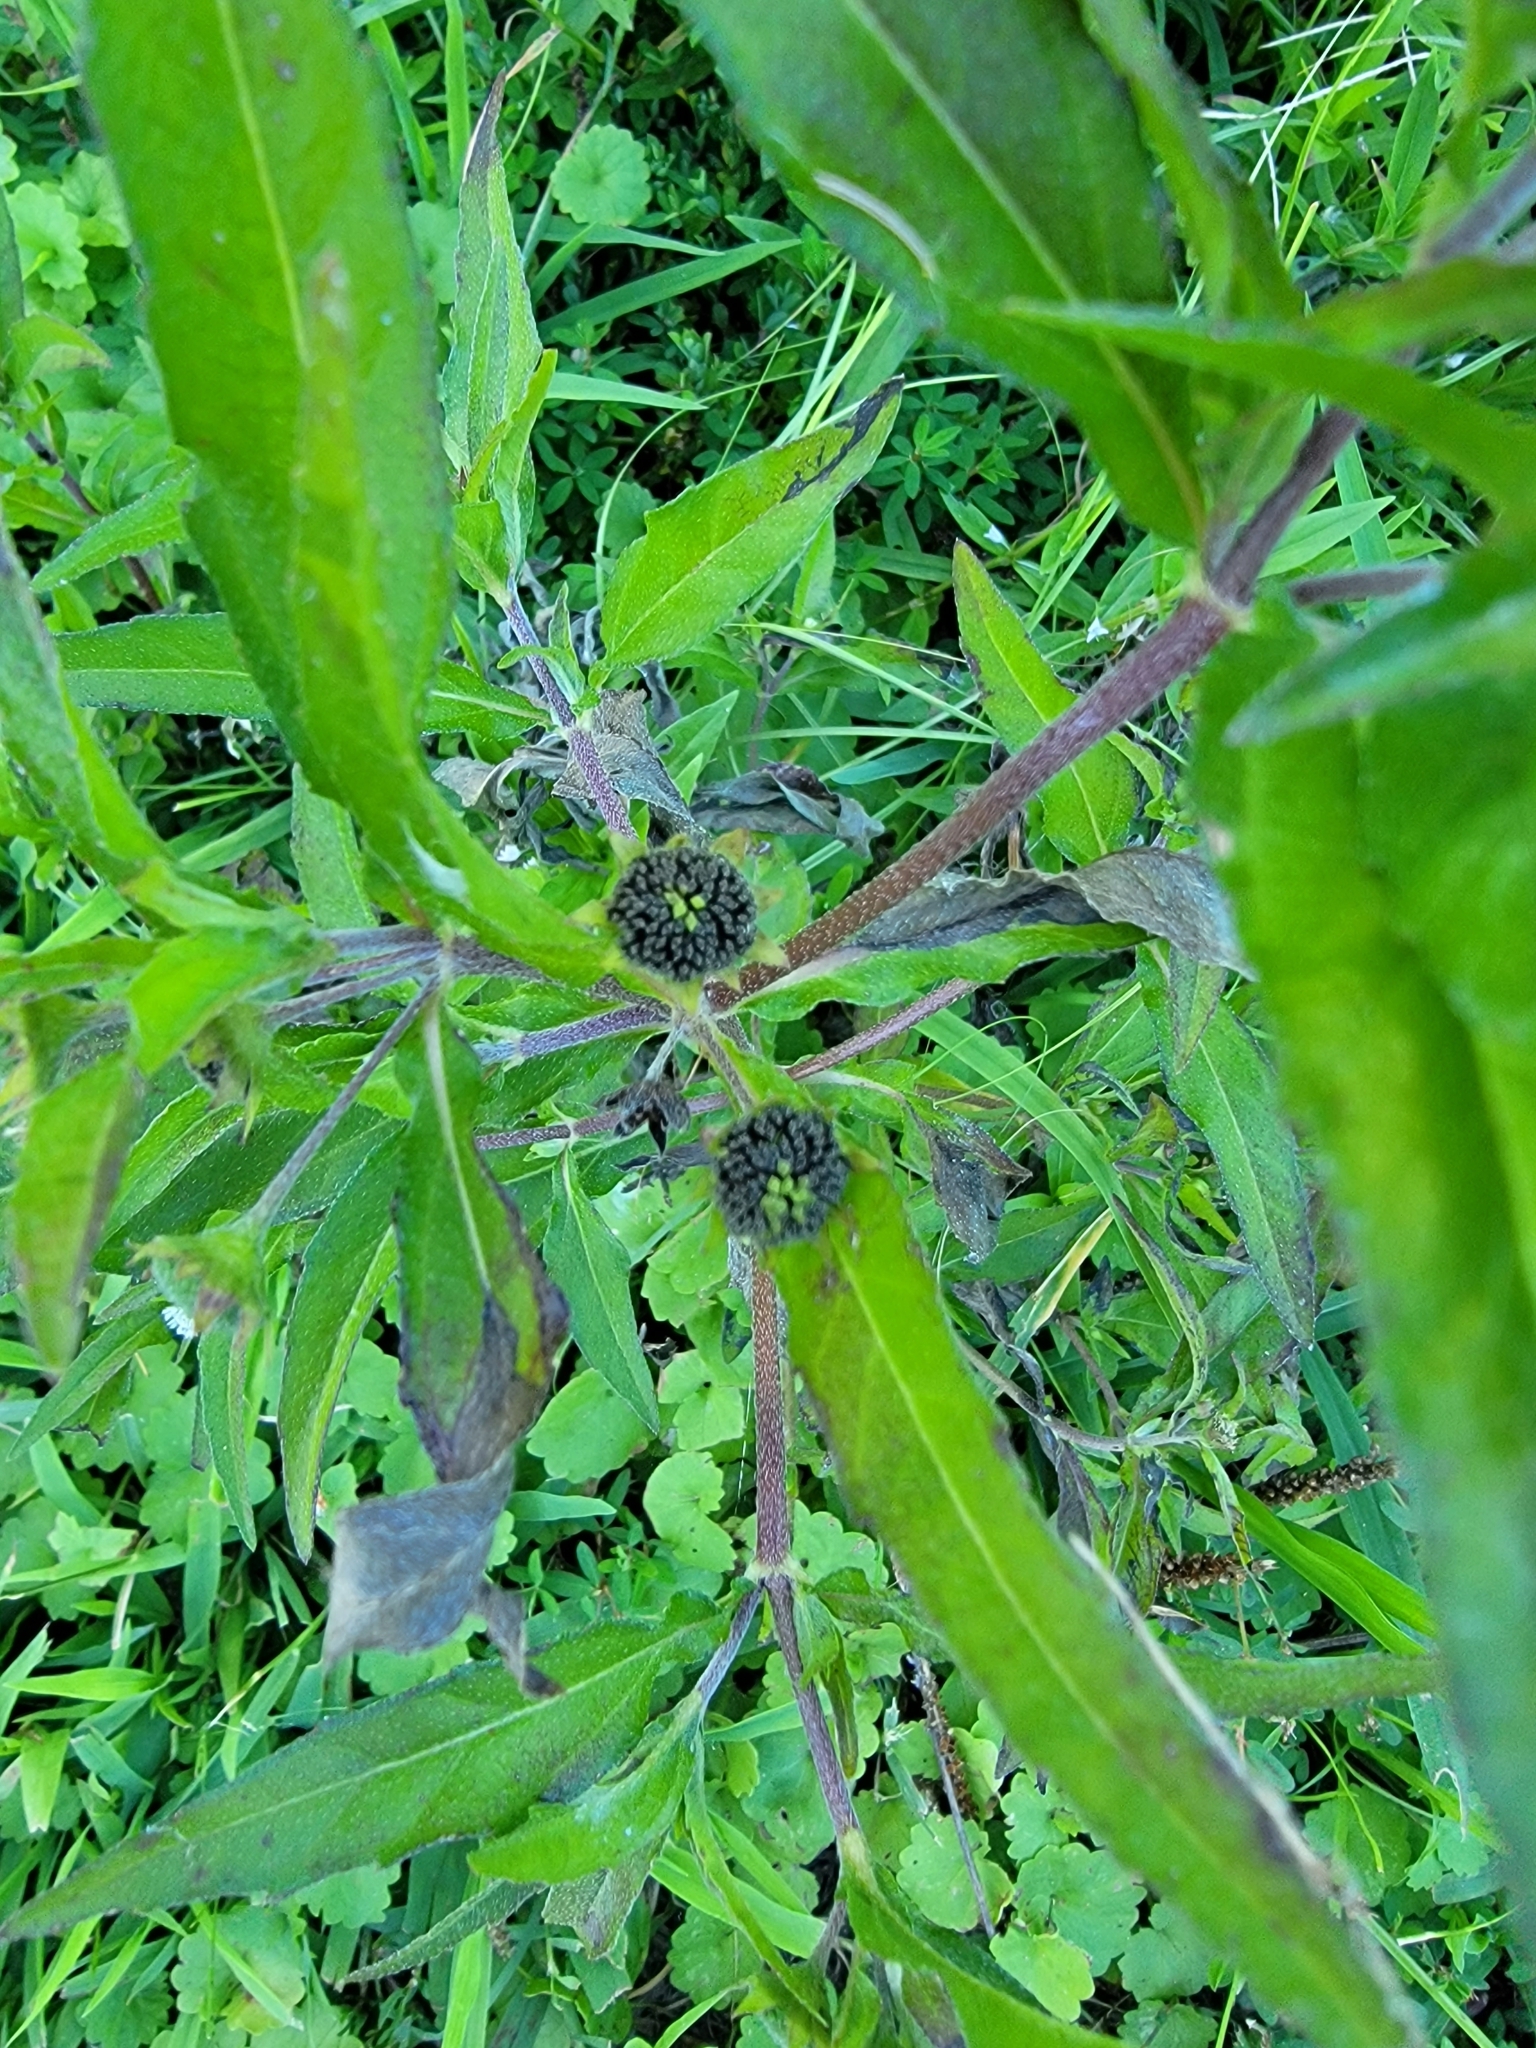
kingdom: Plantae
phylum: Tracheophyta
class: Magnoliopsida
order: Asterales
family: Asteraceae
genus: Eclipta
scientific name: Eclipta prostrata
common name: False daisy
